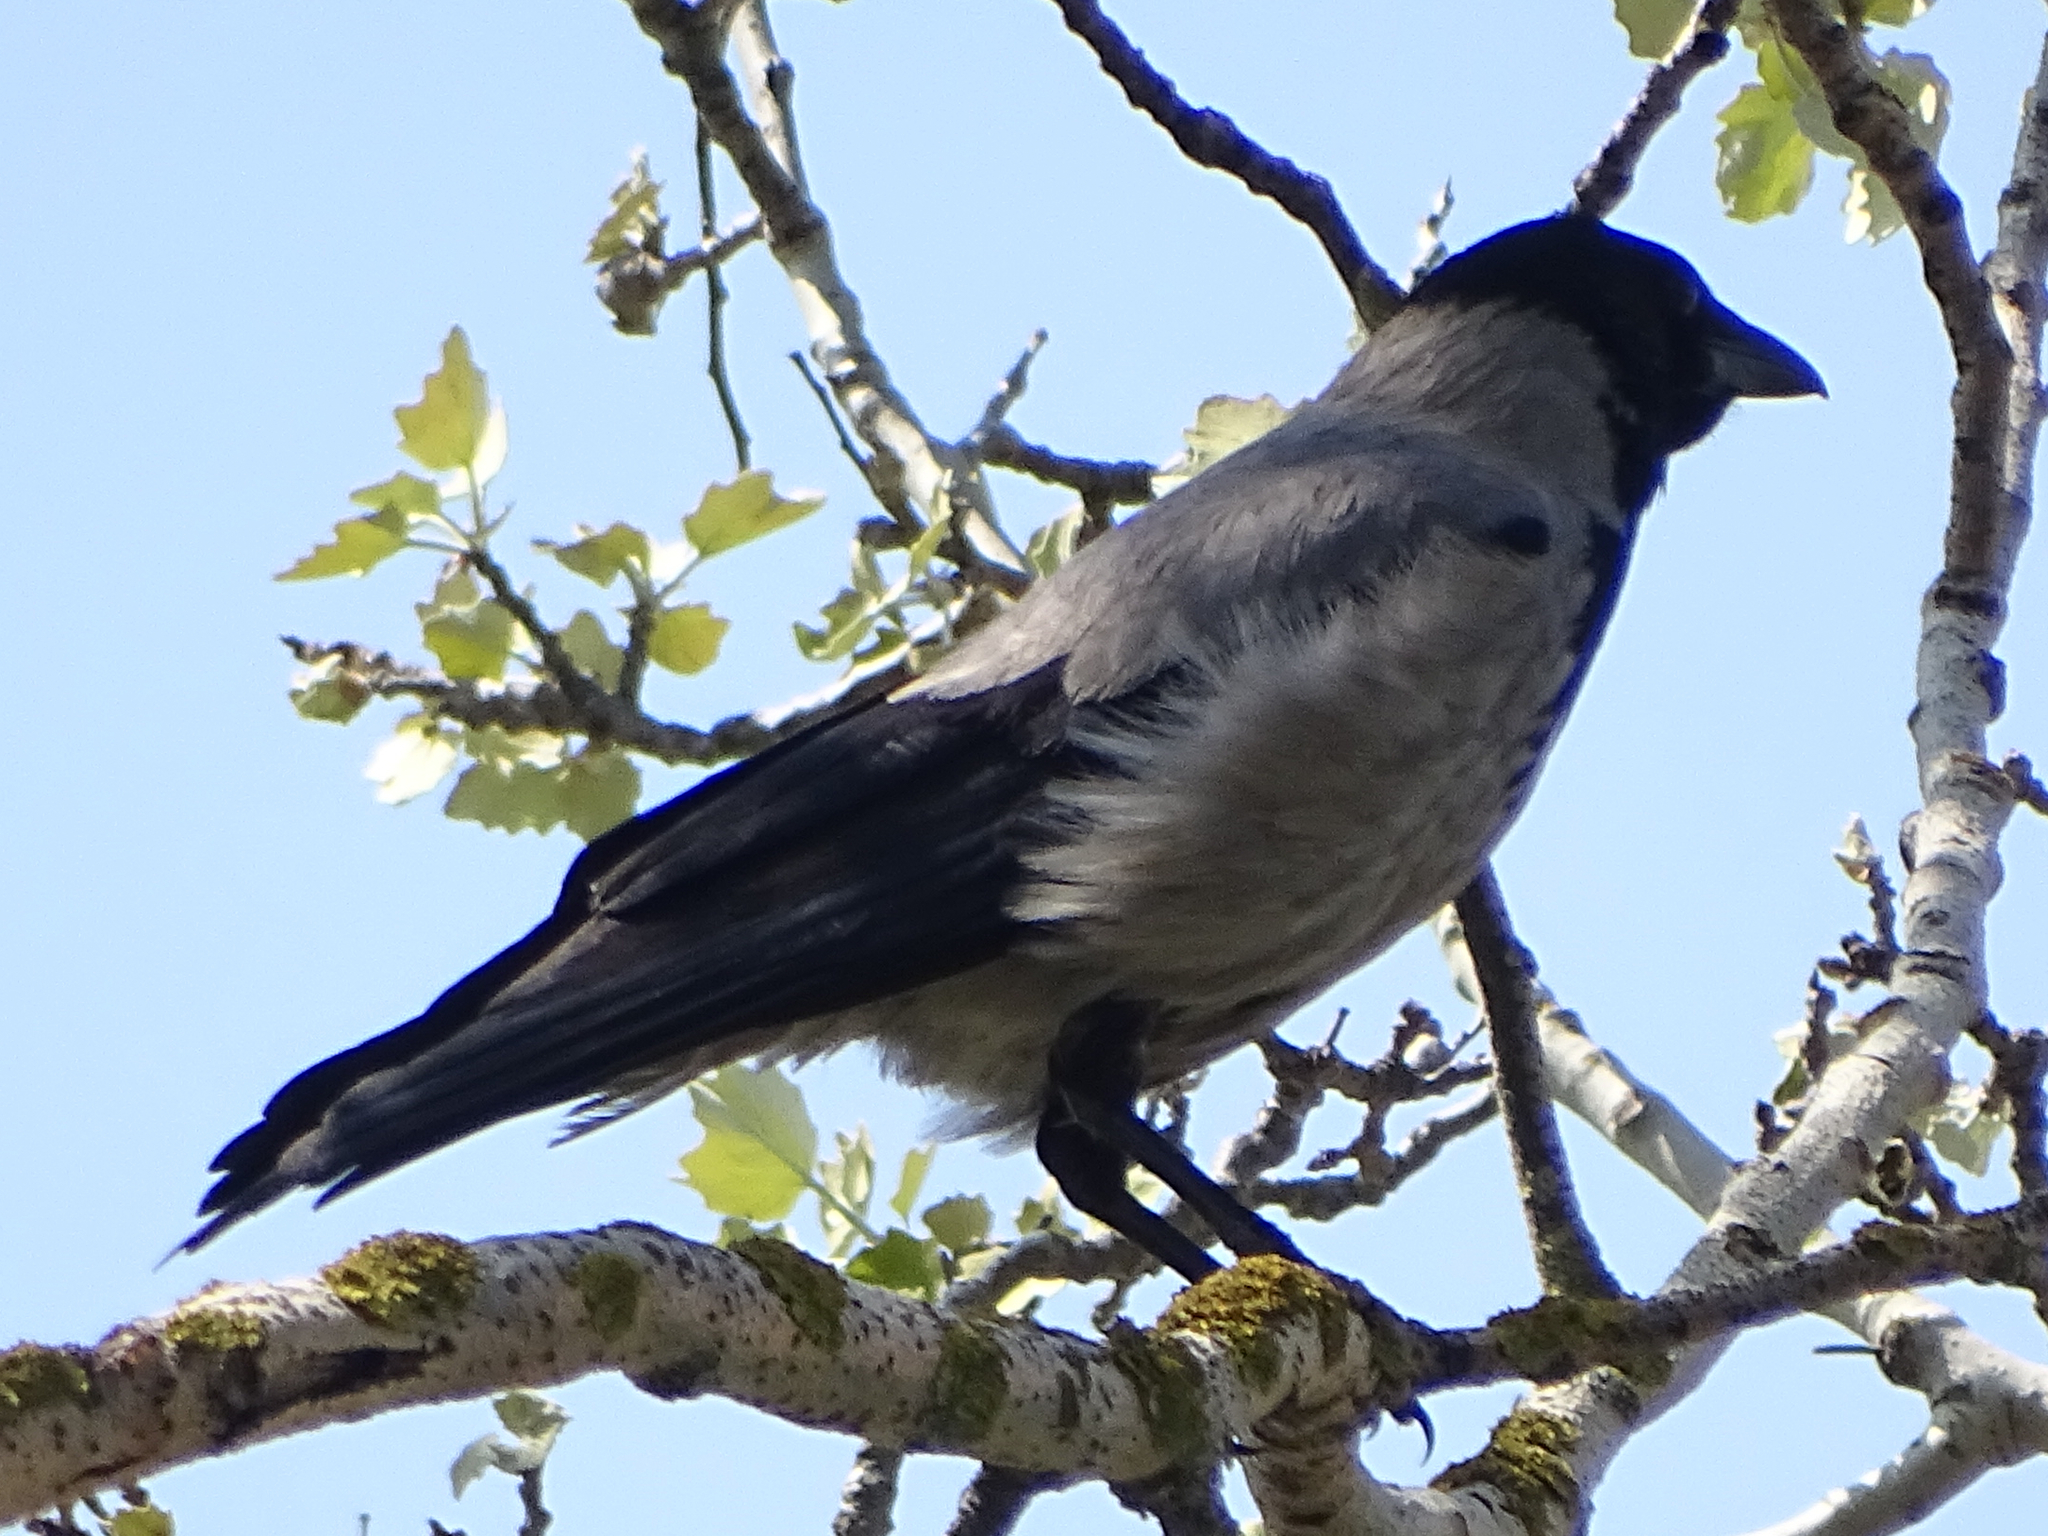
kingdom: Animalia
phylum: Chordata
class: Aves
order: Passeriformes
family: Corvidae
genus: Corvus
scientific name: Corvus cornix
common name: Hooded crow
